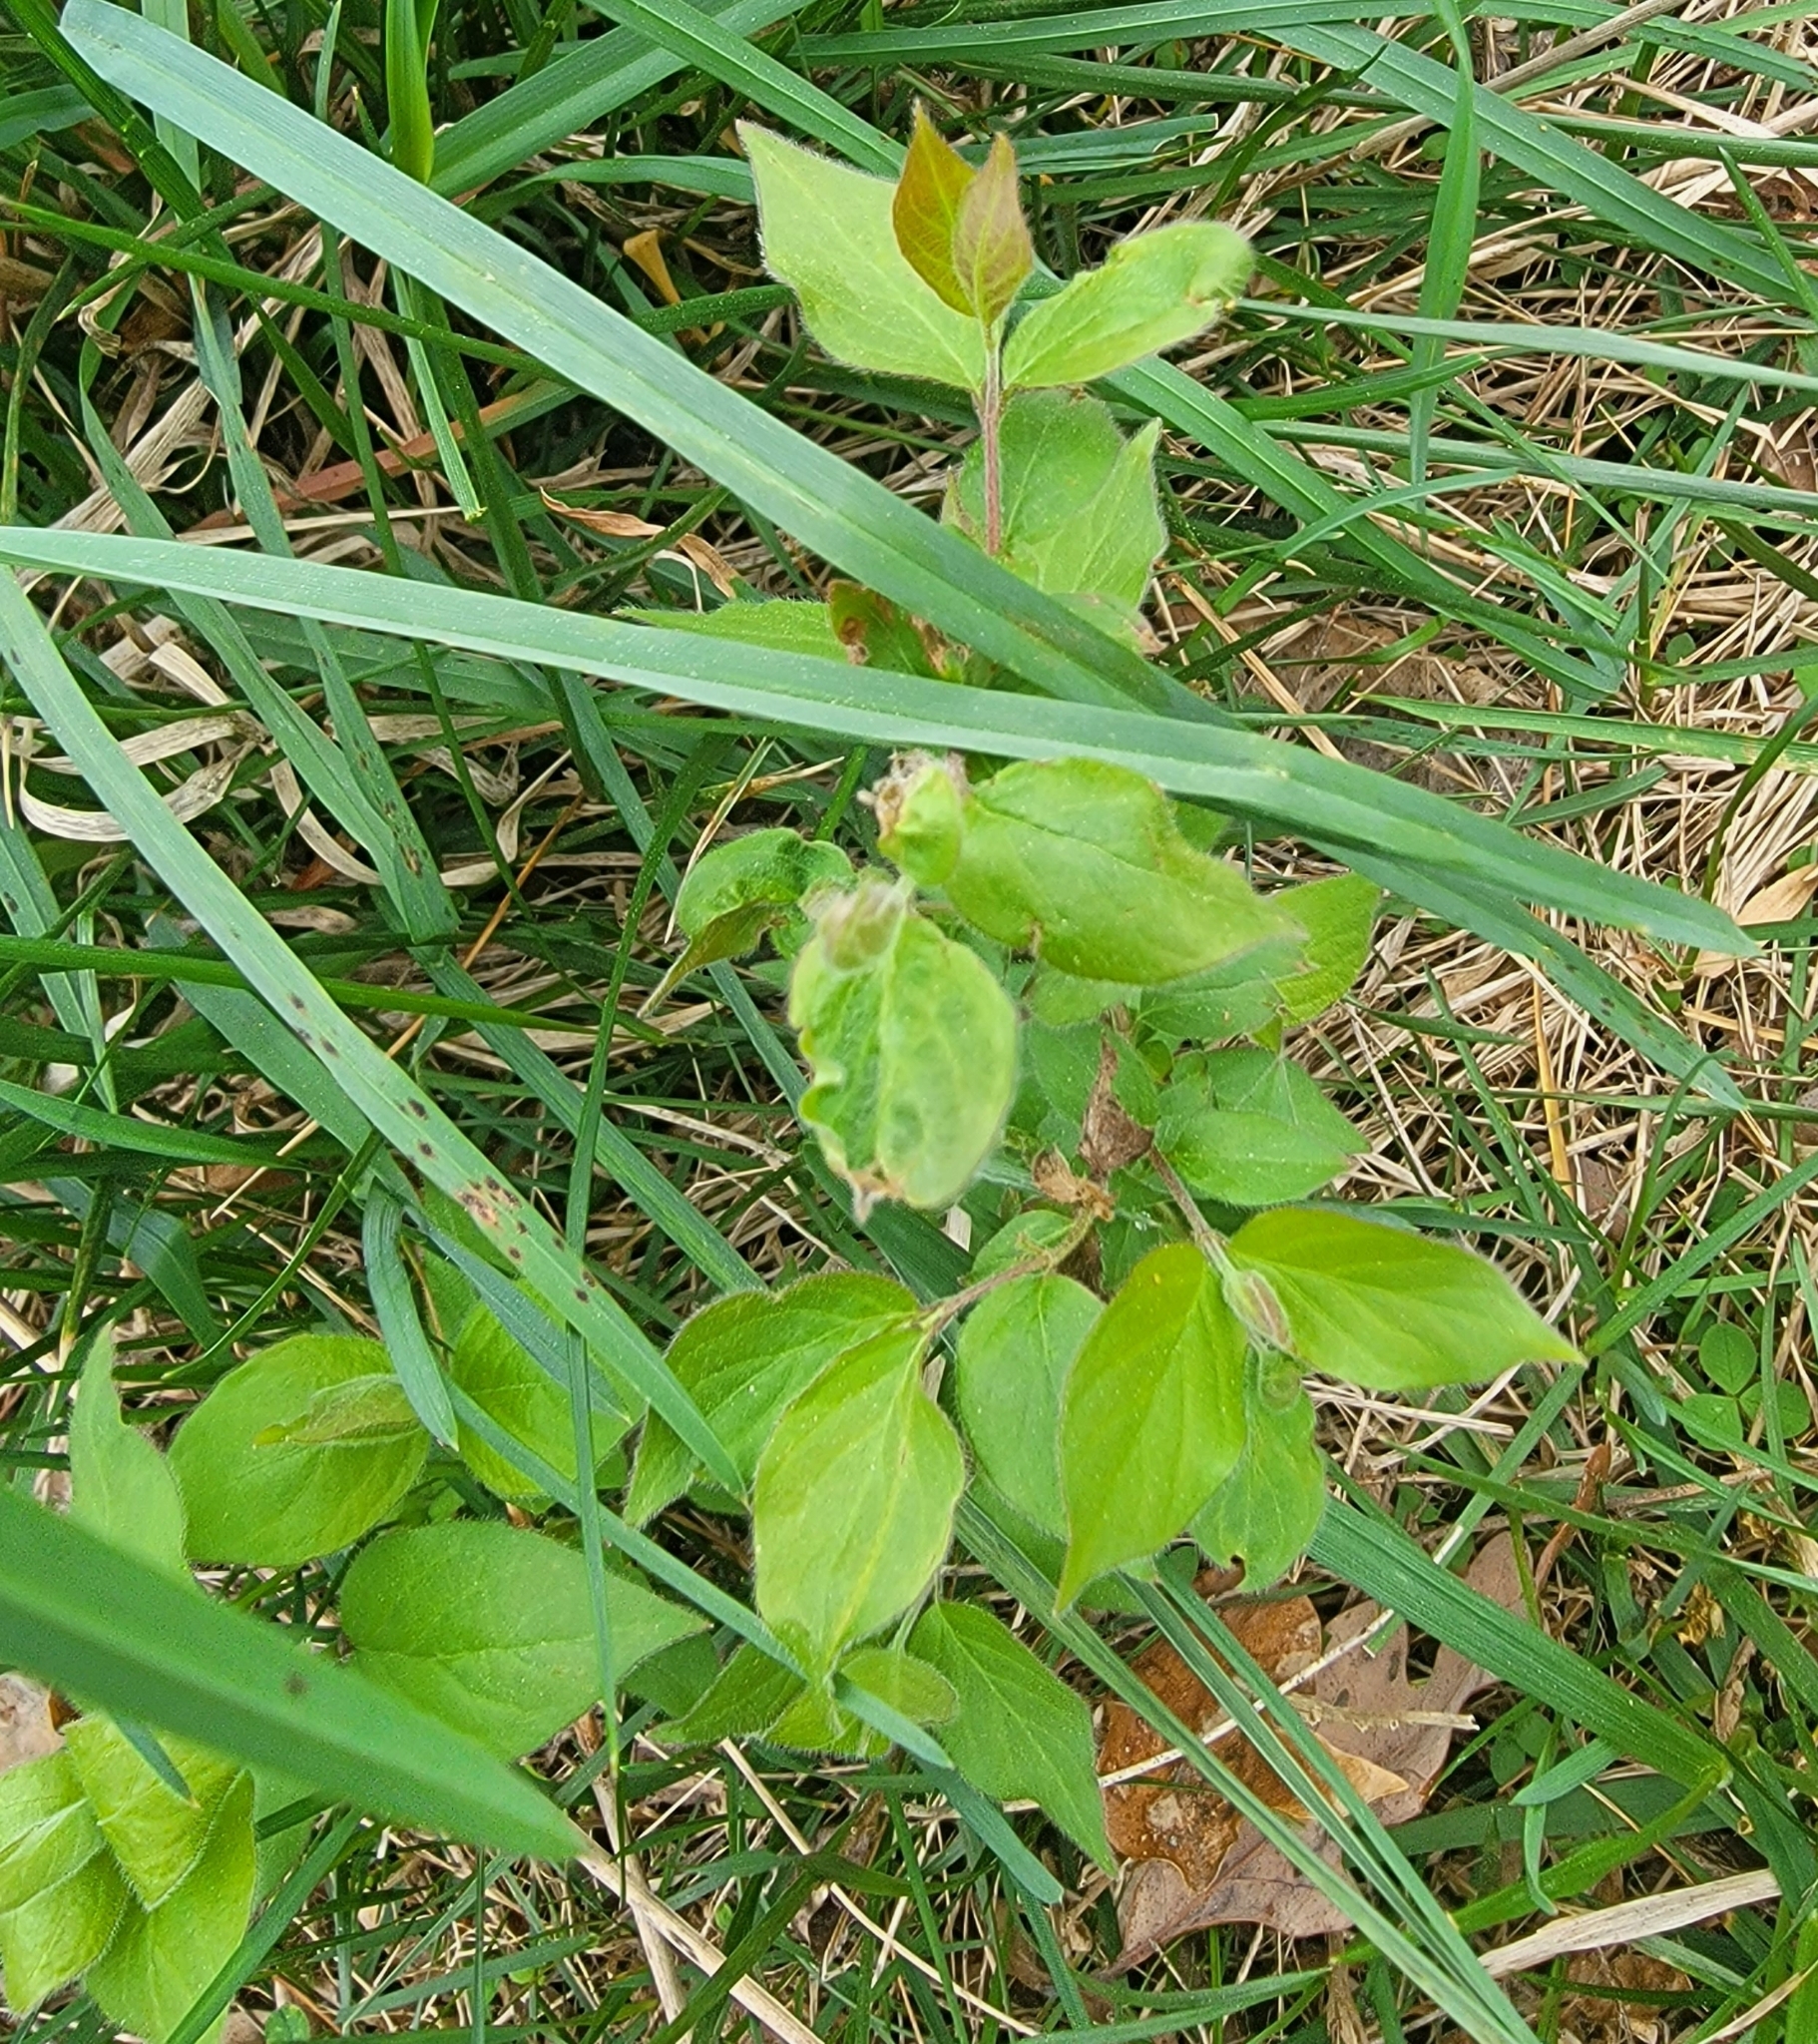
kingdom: Plantae
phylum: Tracheophyta
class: Magnoliopsida
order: Dipsacales
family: Caprifoliaceae
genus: Lonicera
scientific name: Lonicera maackii
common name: Amur honeysuckle
